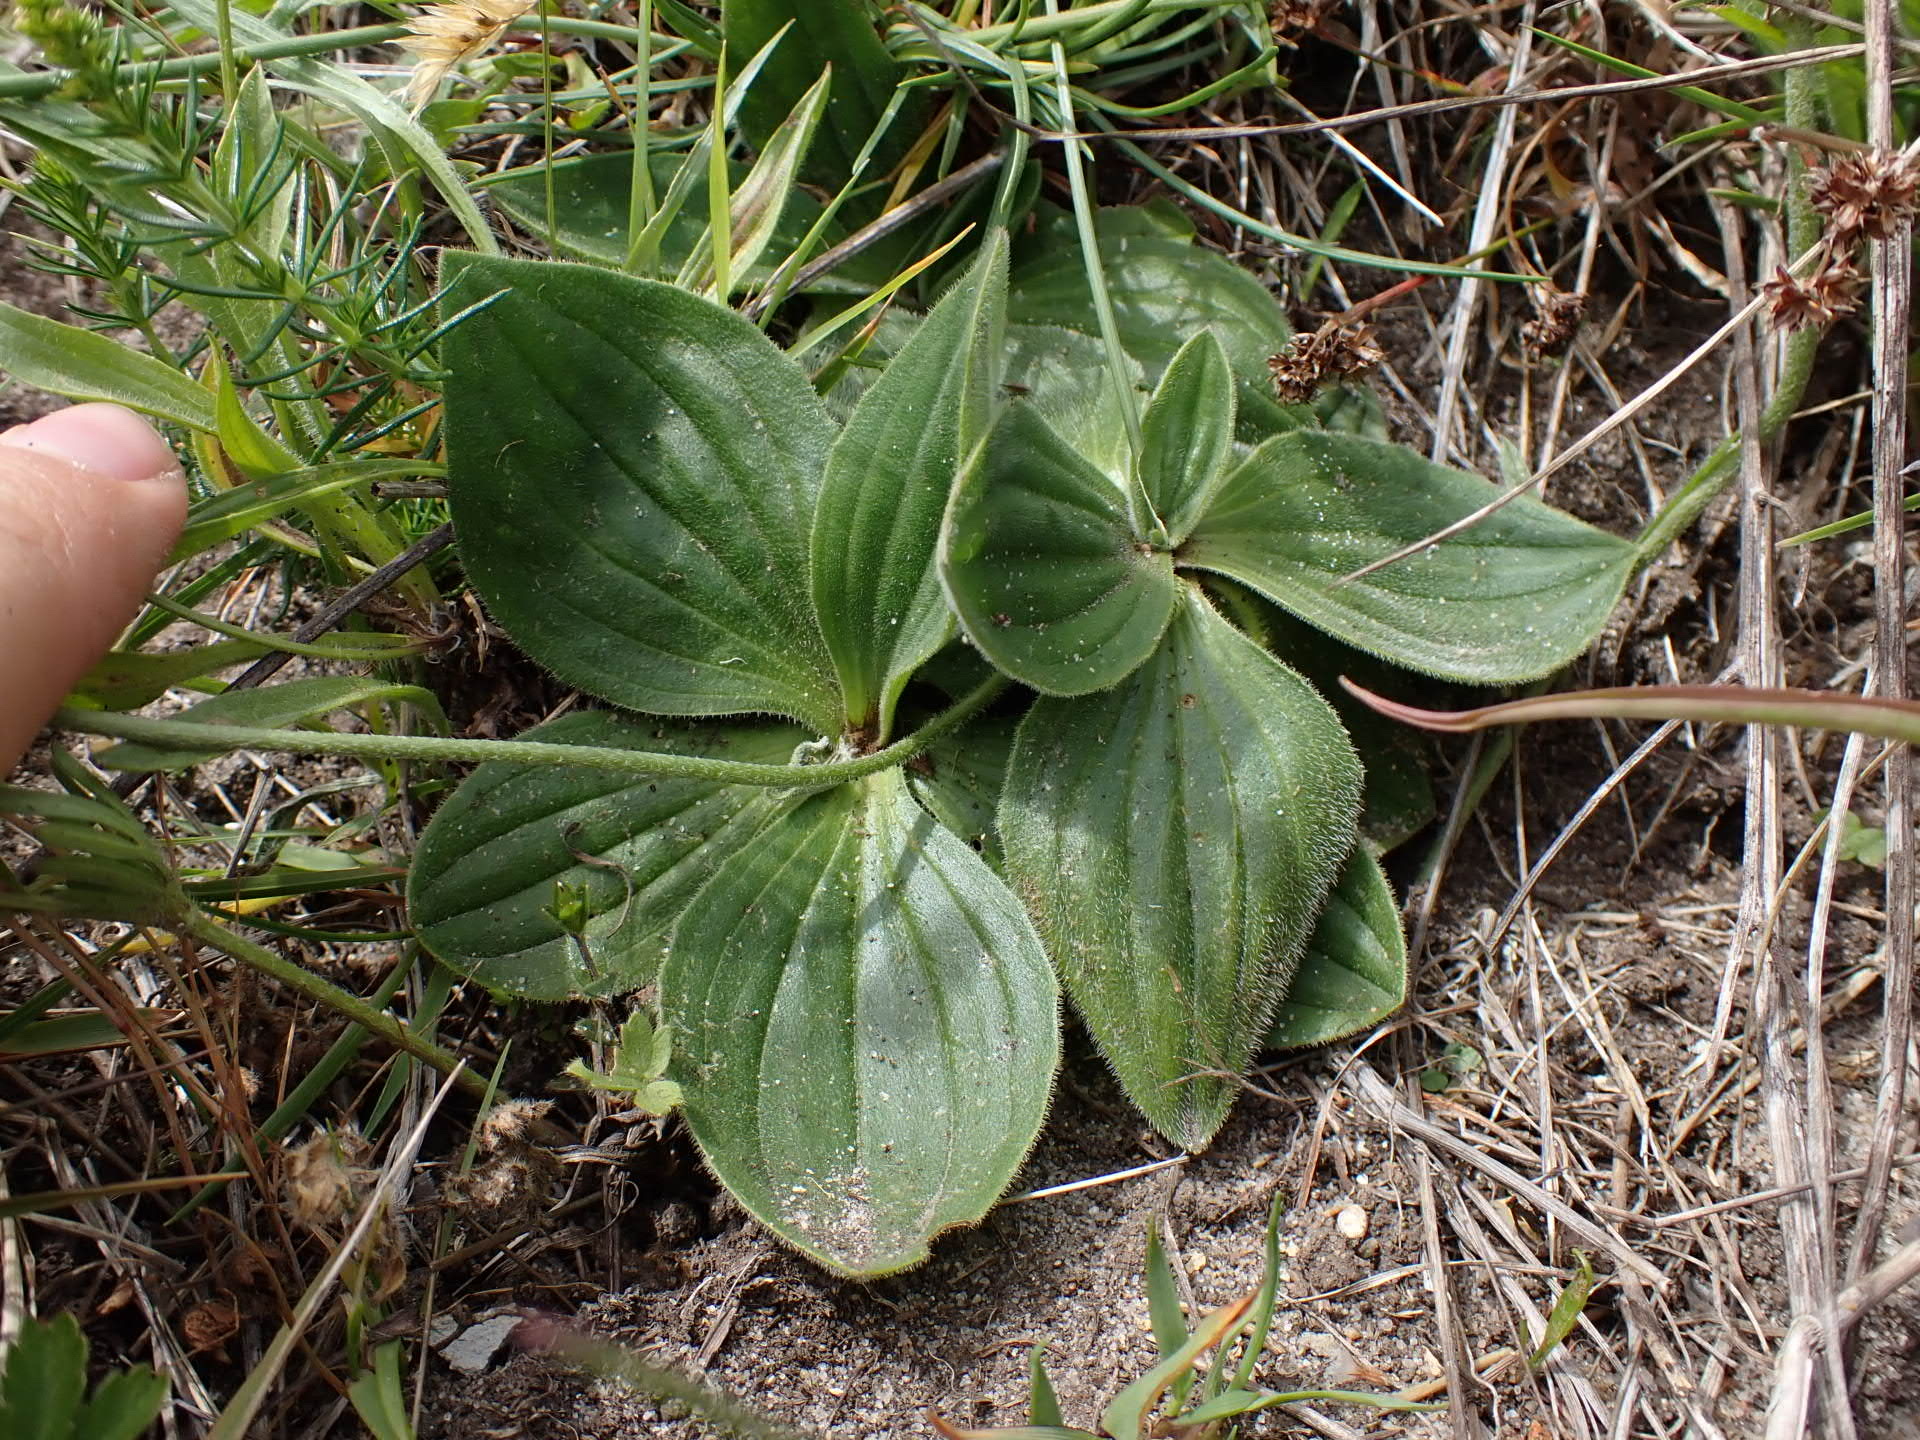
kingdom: Plantae
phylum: Tracheophyta
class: Magnoliopsida
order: Lamiales
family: Plantaginaceae
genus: Plantago
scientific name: Plantago media
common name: Hoary plantain
